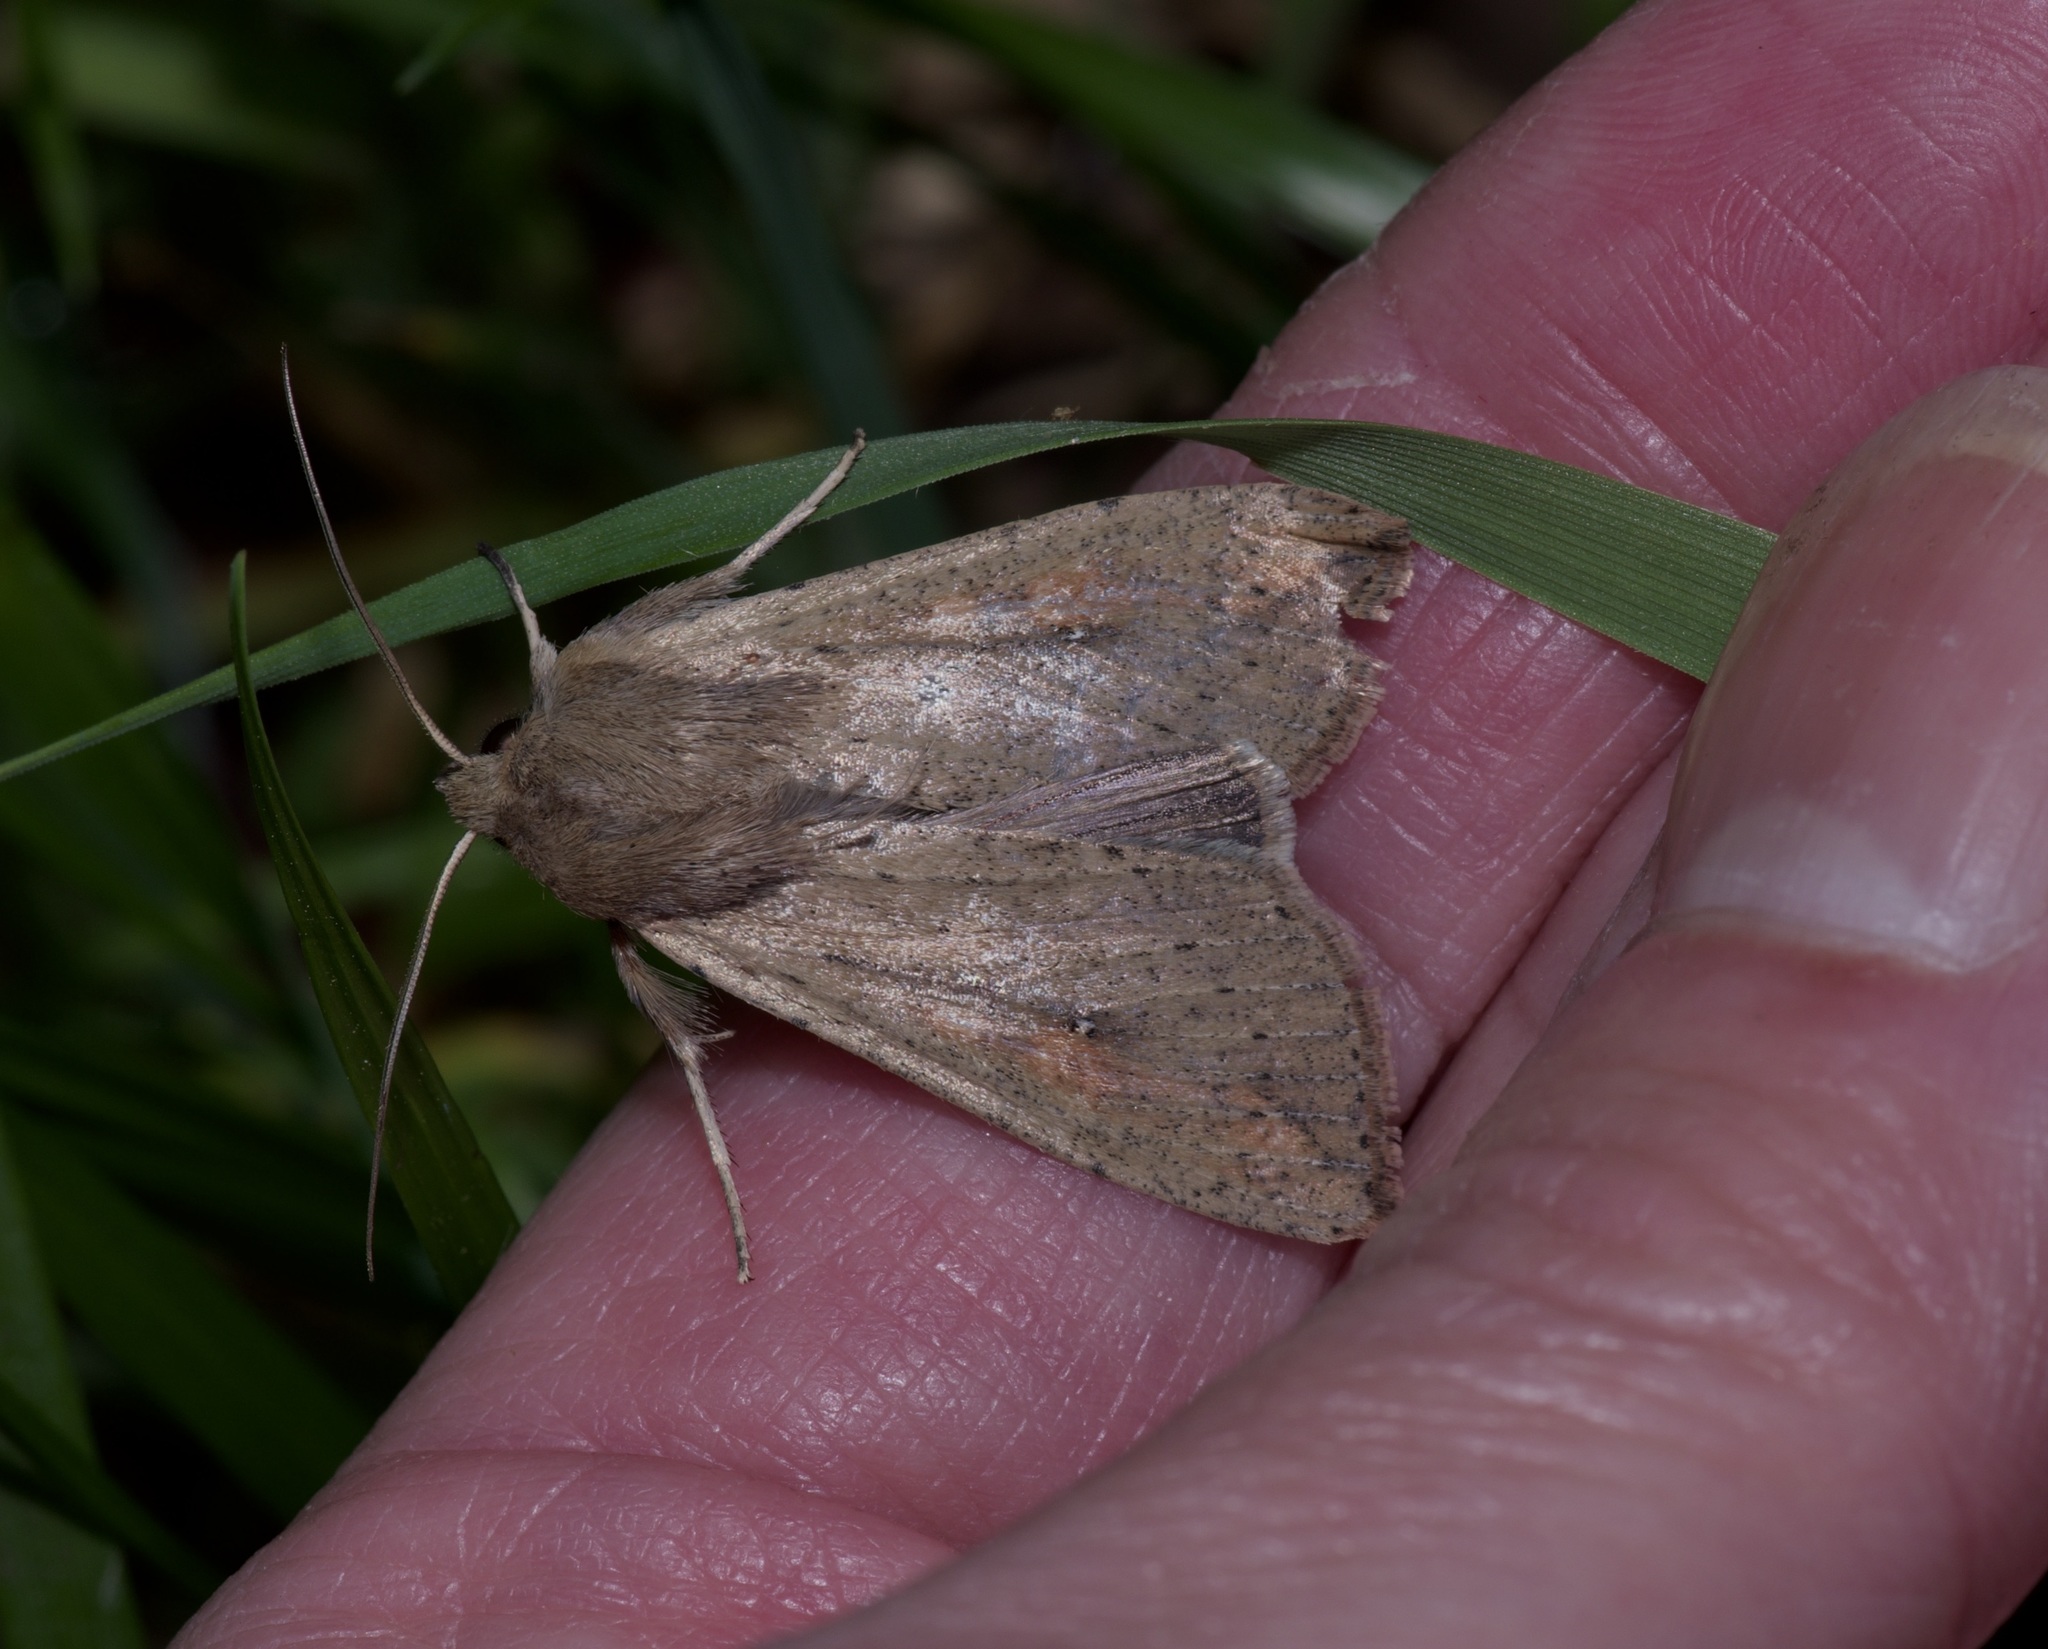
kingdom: Animalia
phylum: Arthropoda
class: Insecta
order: Lepidoptera
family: Noctuidae
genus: Mythimna
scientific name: Mythimna unipuncta
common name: White-speck
